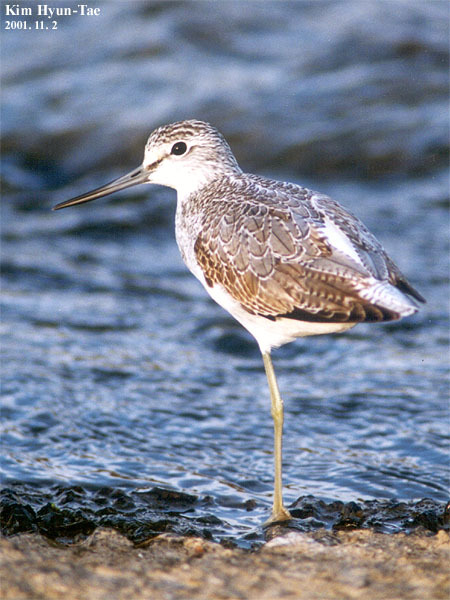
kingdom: Animalia
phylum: Chordata
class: Aves
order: Charadriiformes
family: Scolopacidae
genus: Tringa
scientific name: Tringa nebularia
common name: Common greenshank
